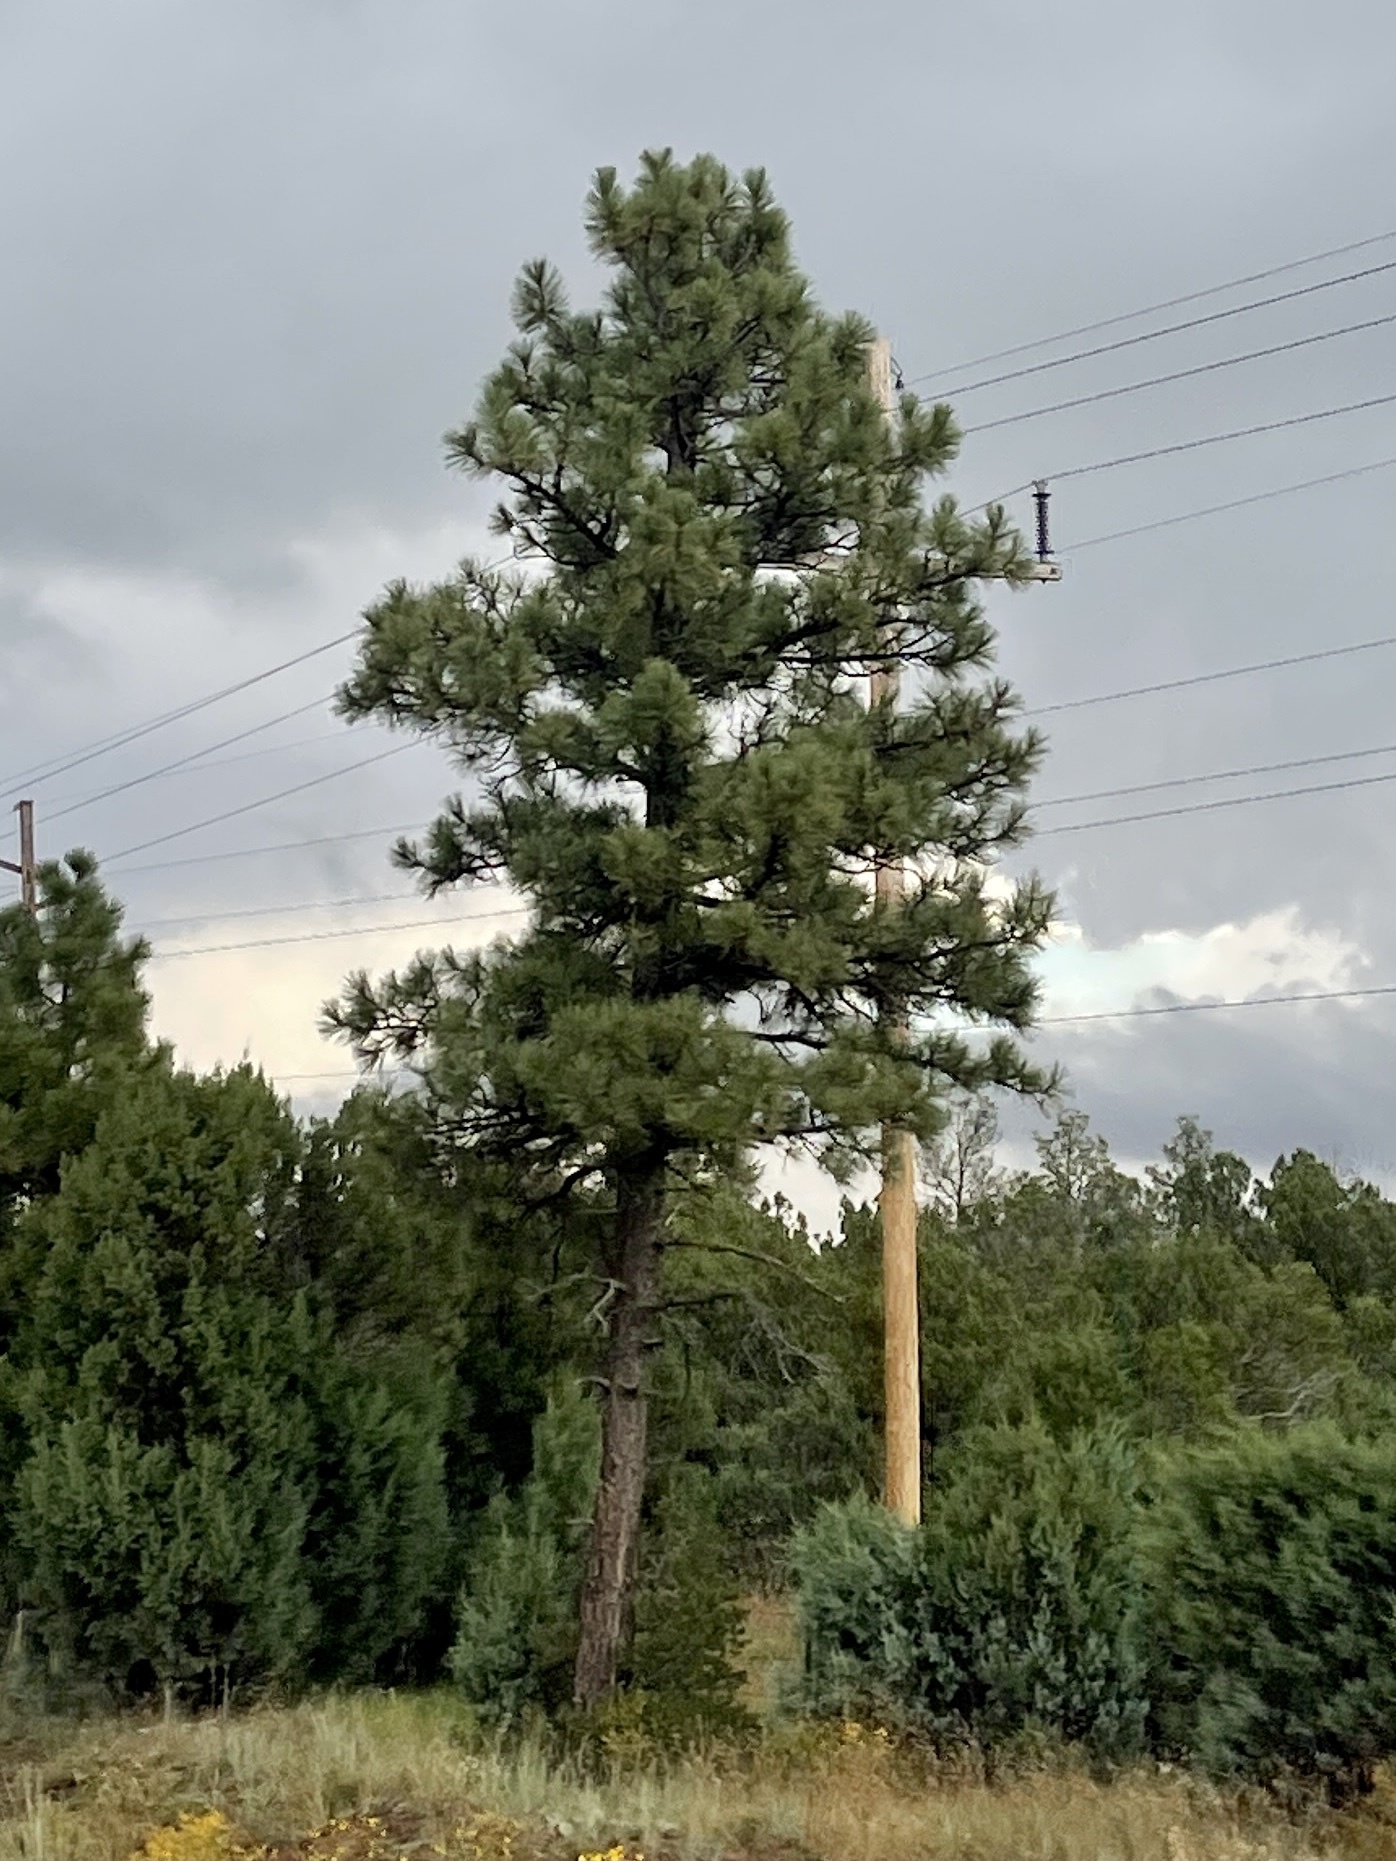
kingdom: Plantae
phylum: Tracheophyta
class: Pinopsida
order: Pinales
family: Pinaceae
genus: Pinus
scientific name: Pinus ponderosa
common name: Western yellow-pine
